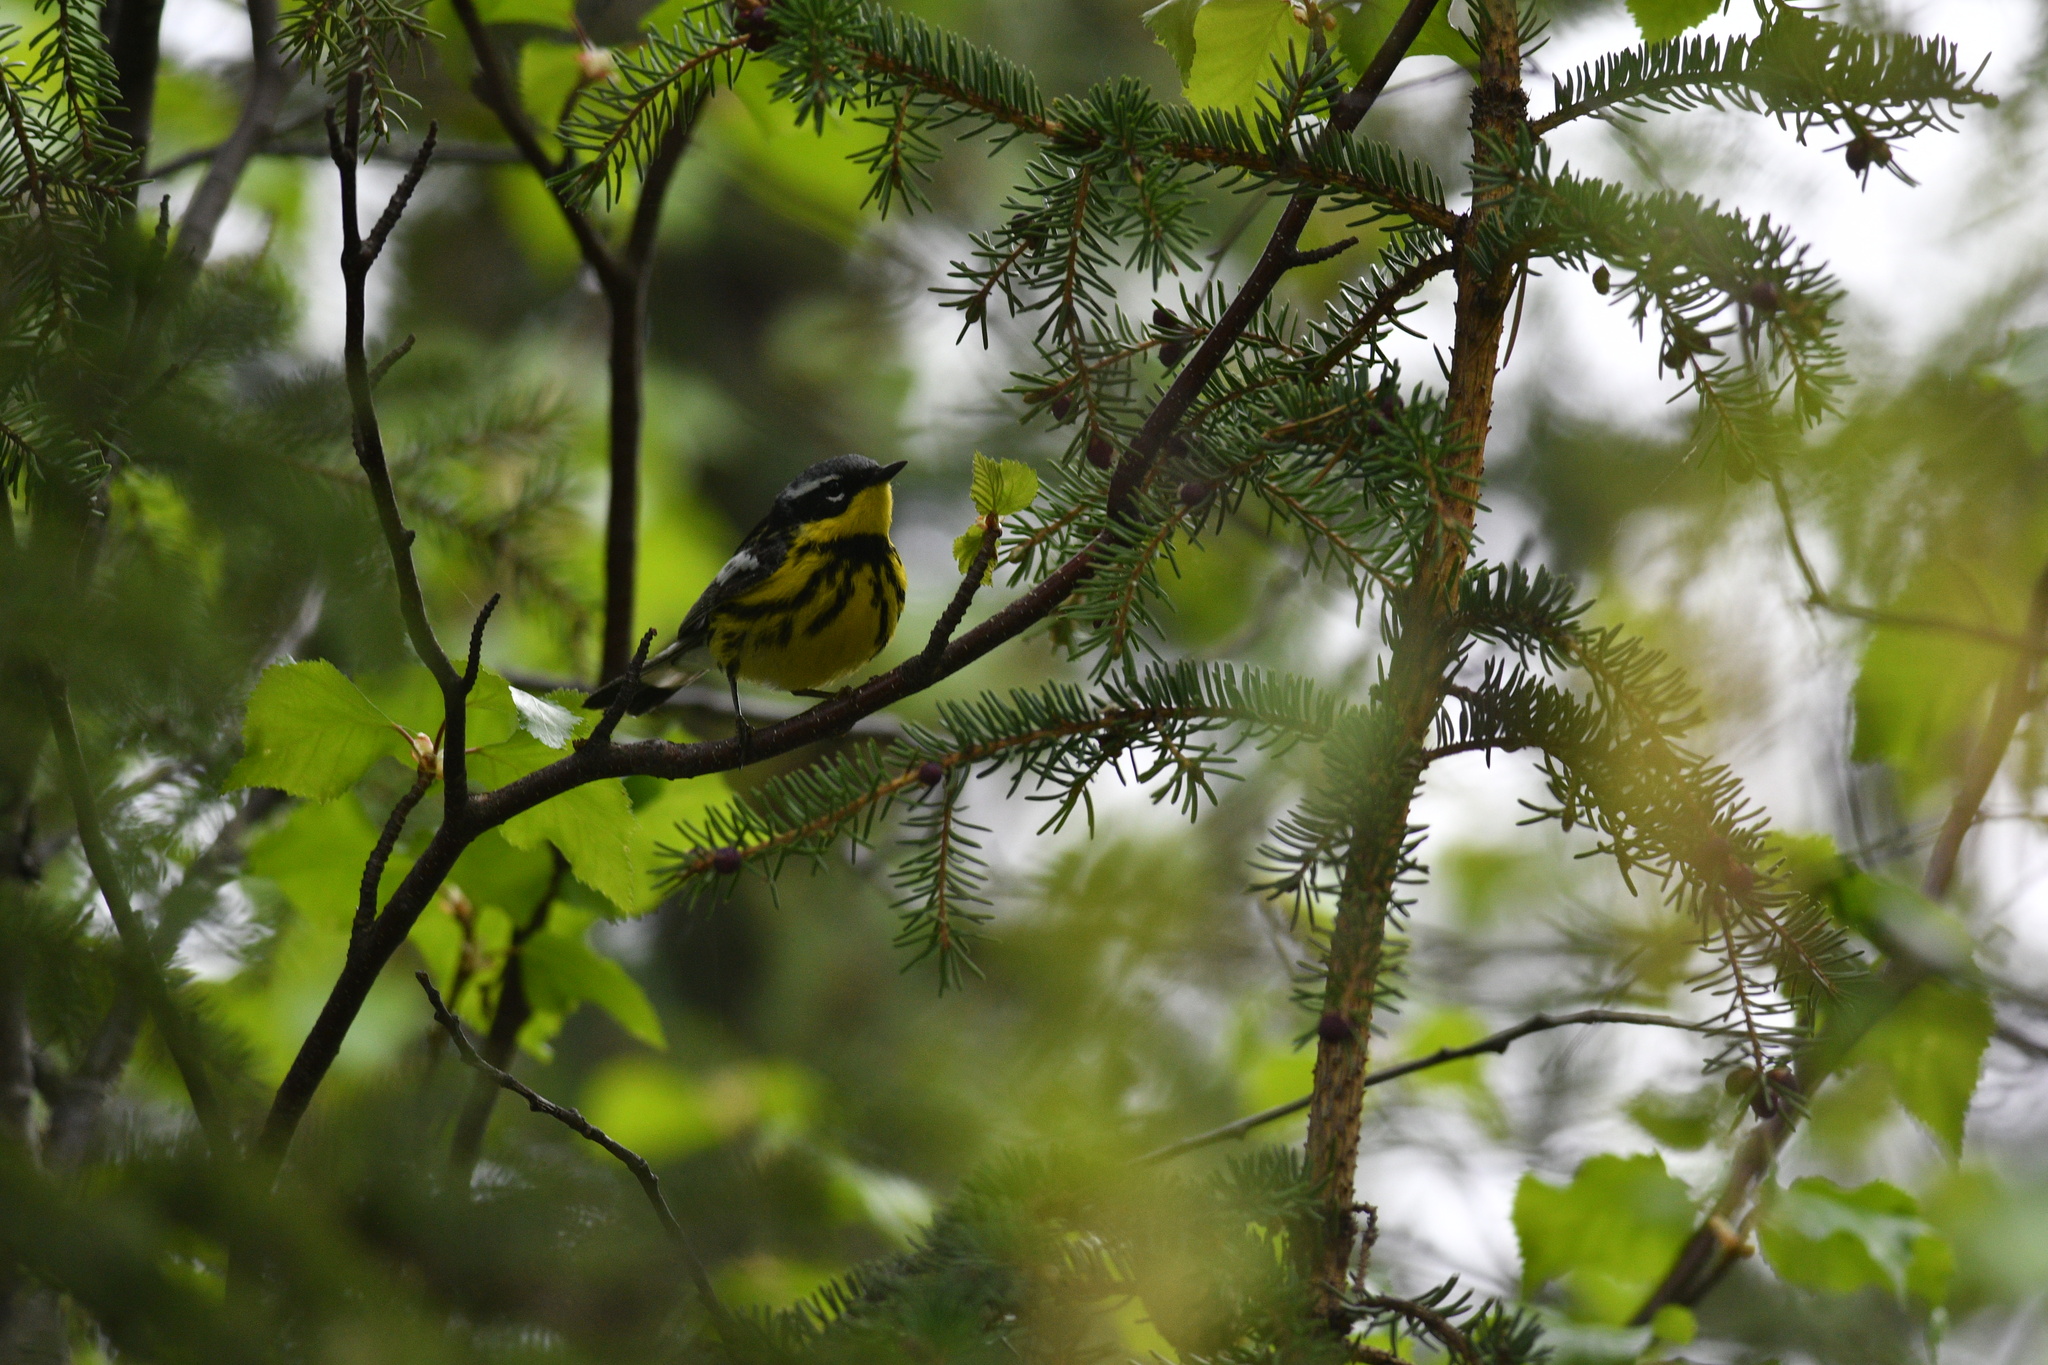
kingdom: Animalia
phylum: Chordata
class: Aves
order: Passeriformes
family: Parulidae
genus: Setophaga
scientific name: Setophaga magnolia
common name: Magnolia warbler
